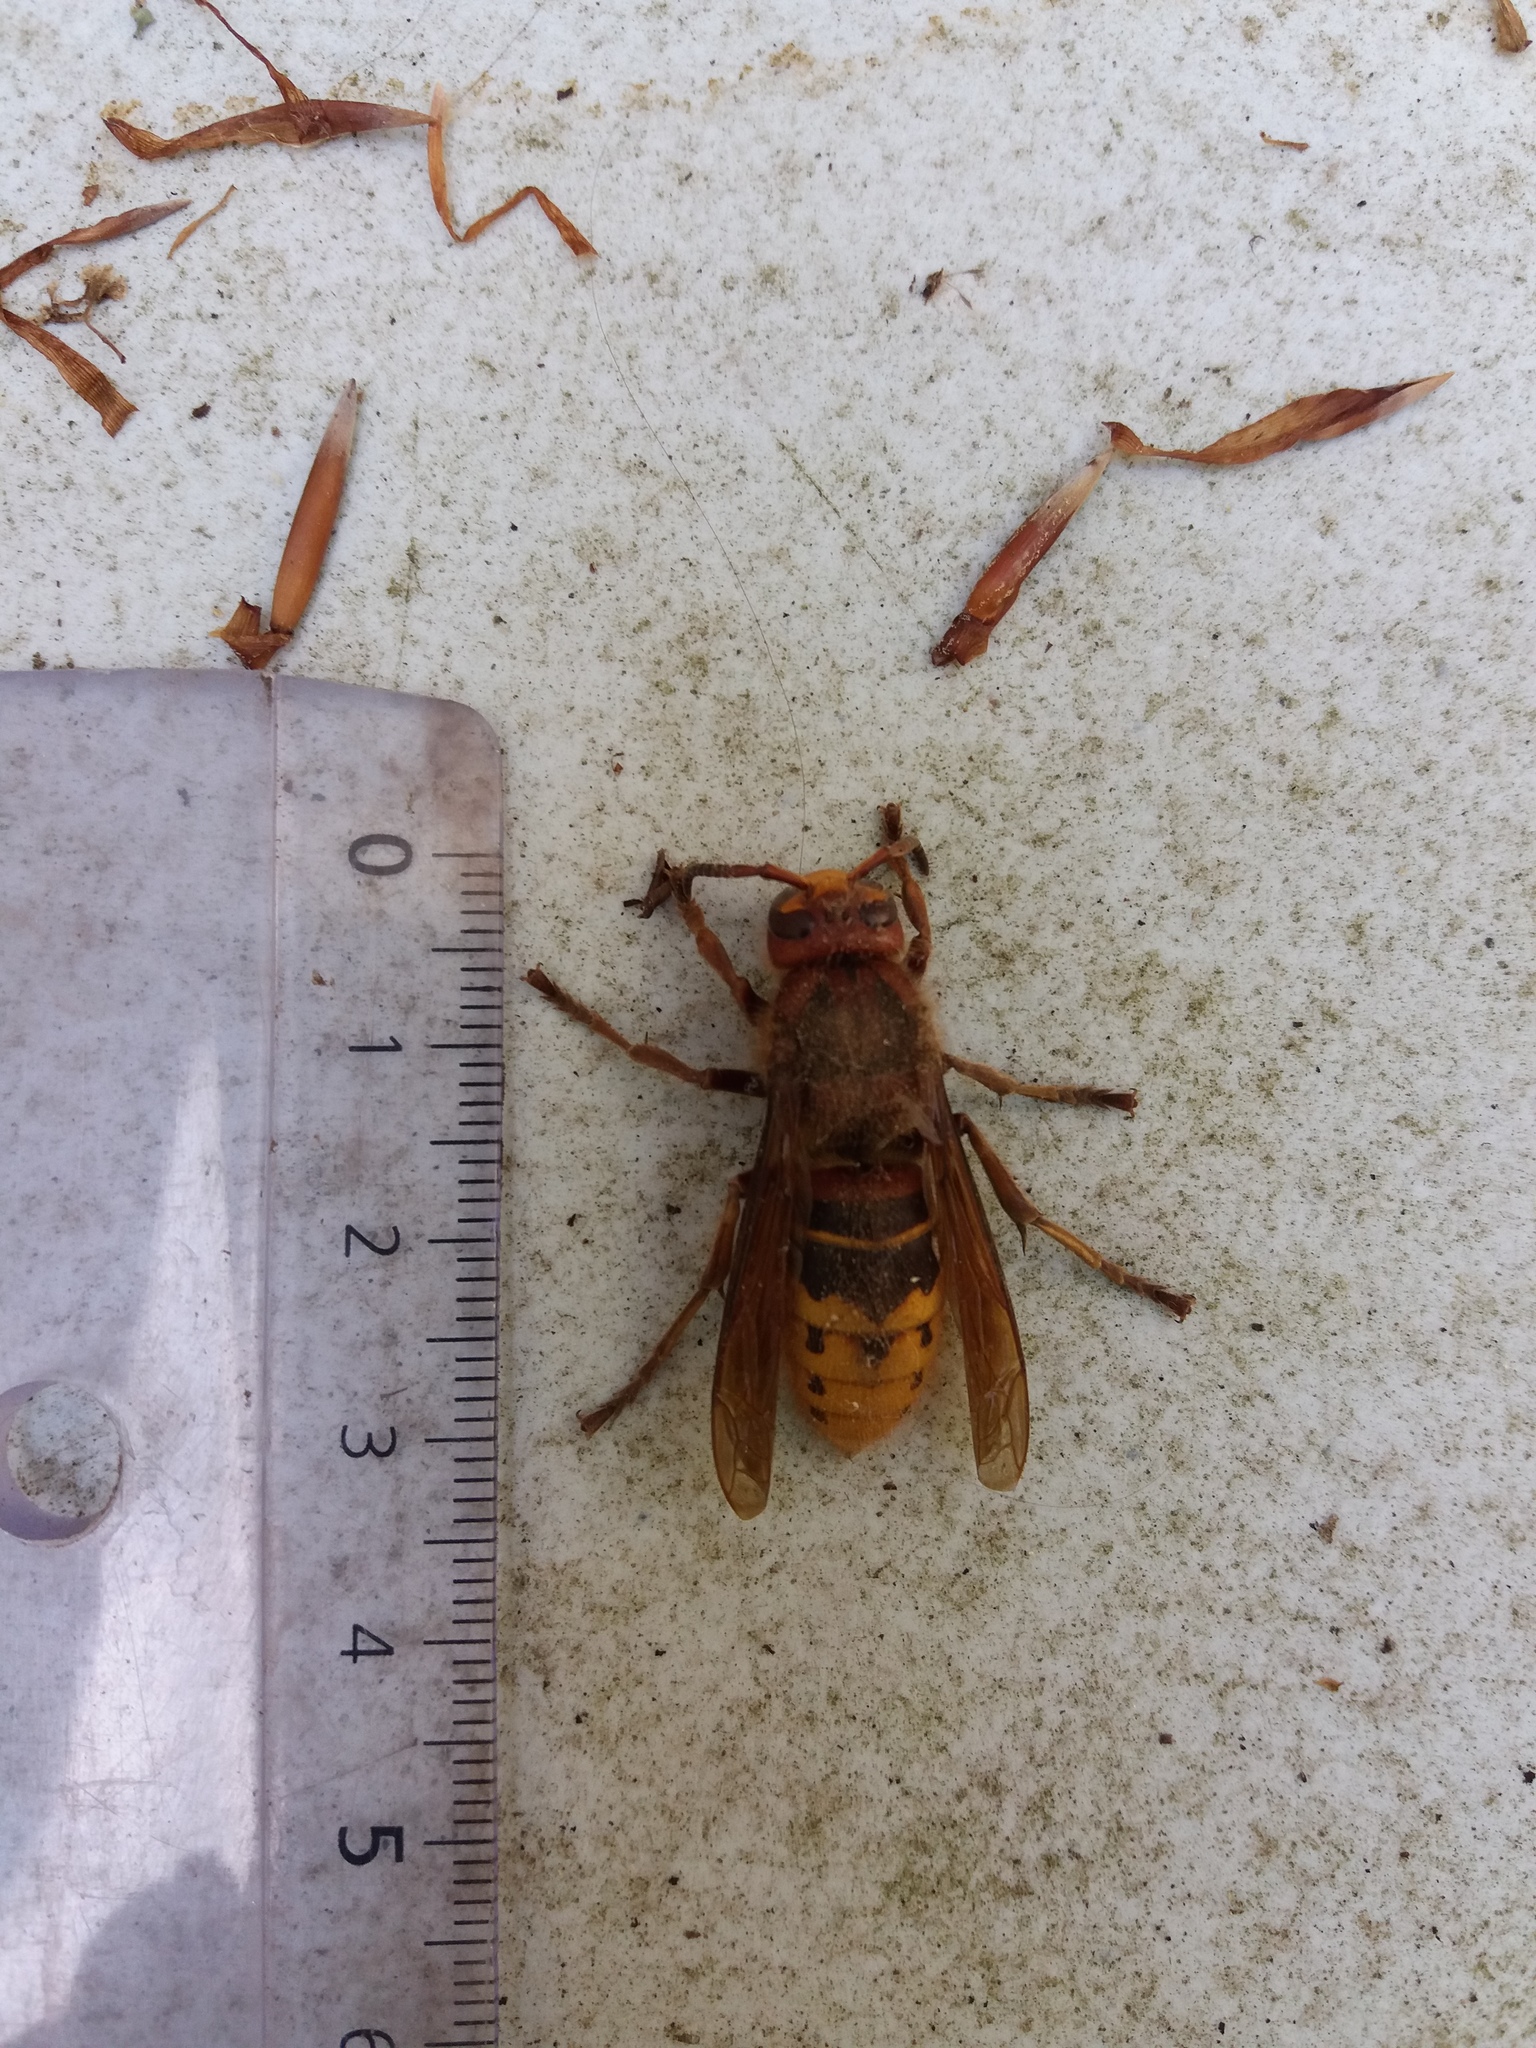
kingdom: Animalia
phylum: Arthropoda
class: Insecta
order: Hymenoptera
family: Vespidae
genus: Vespa
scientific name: Vespa crabro
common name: Hornet
